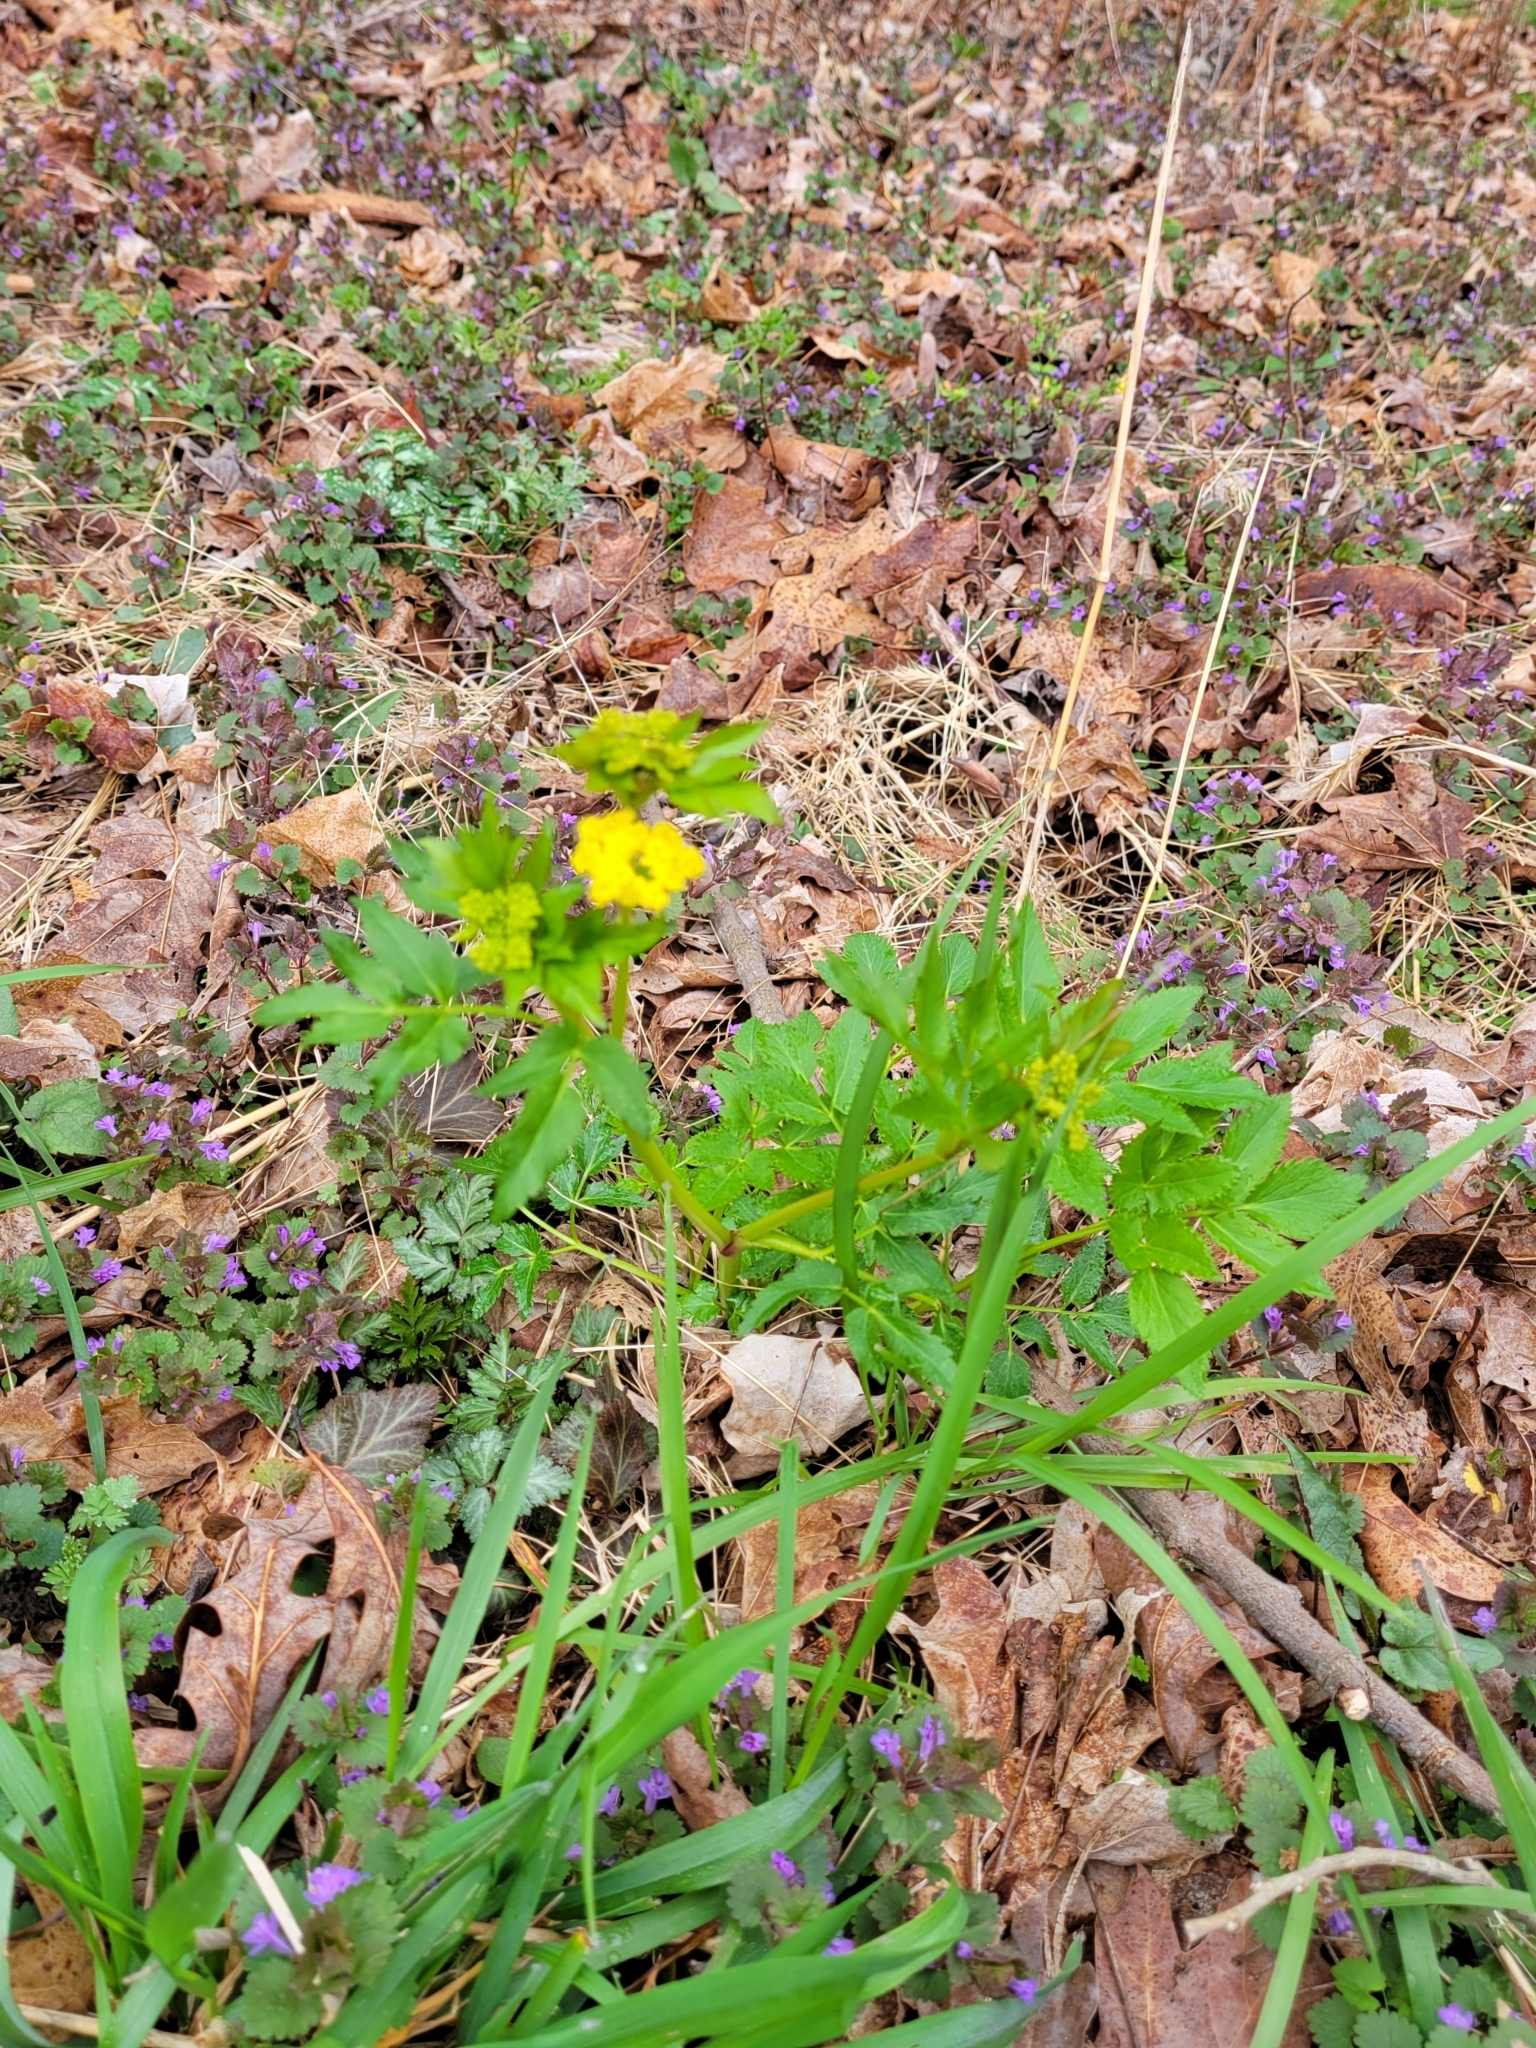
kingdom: Plantae
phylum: Tracheophyta
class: Magnoliopsida
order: Apiales
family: Apiaceae
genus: Zizia
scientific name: Zizia aurea
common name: Golden alexanders
